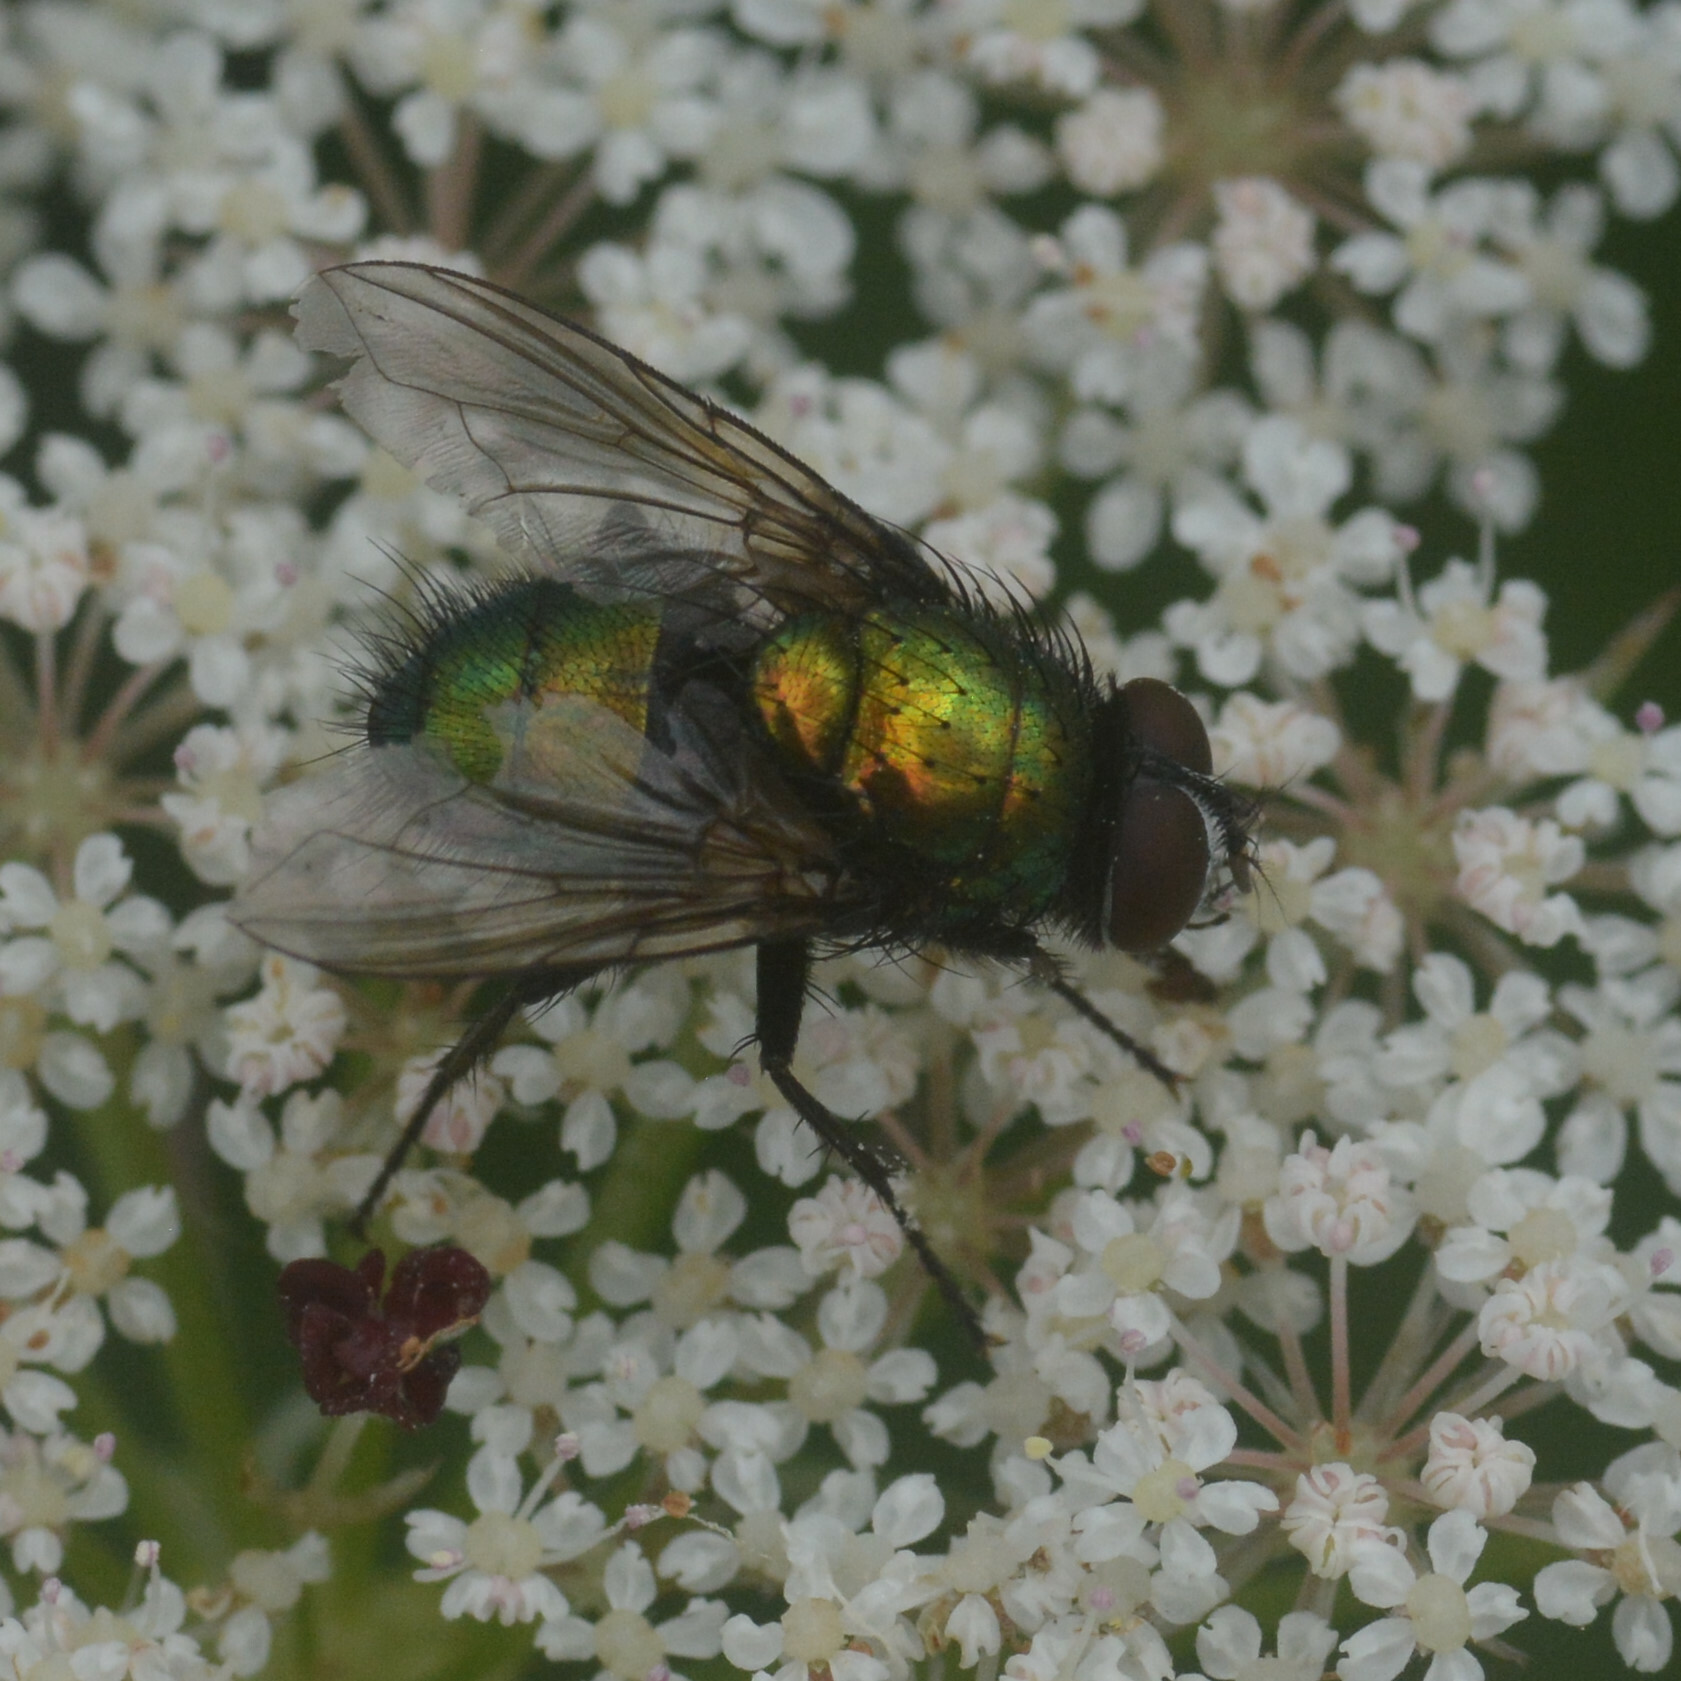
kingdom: Animalia
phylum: Arthropoda
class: Insecta
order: Diptera
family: Calliphoridae
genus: Lucilia
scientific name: Lucilia bufonivora
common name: Anuran parasite
